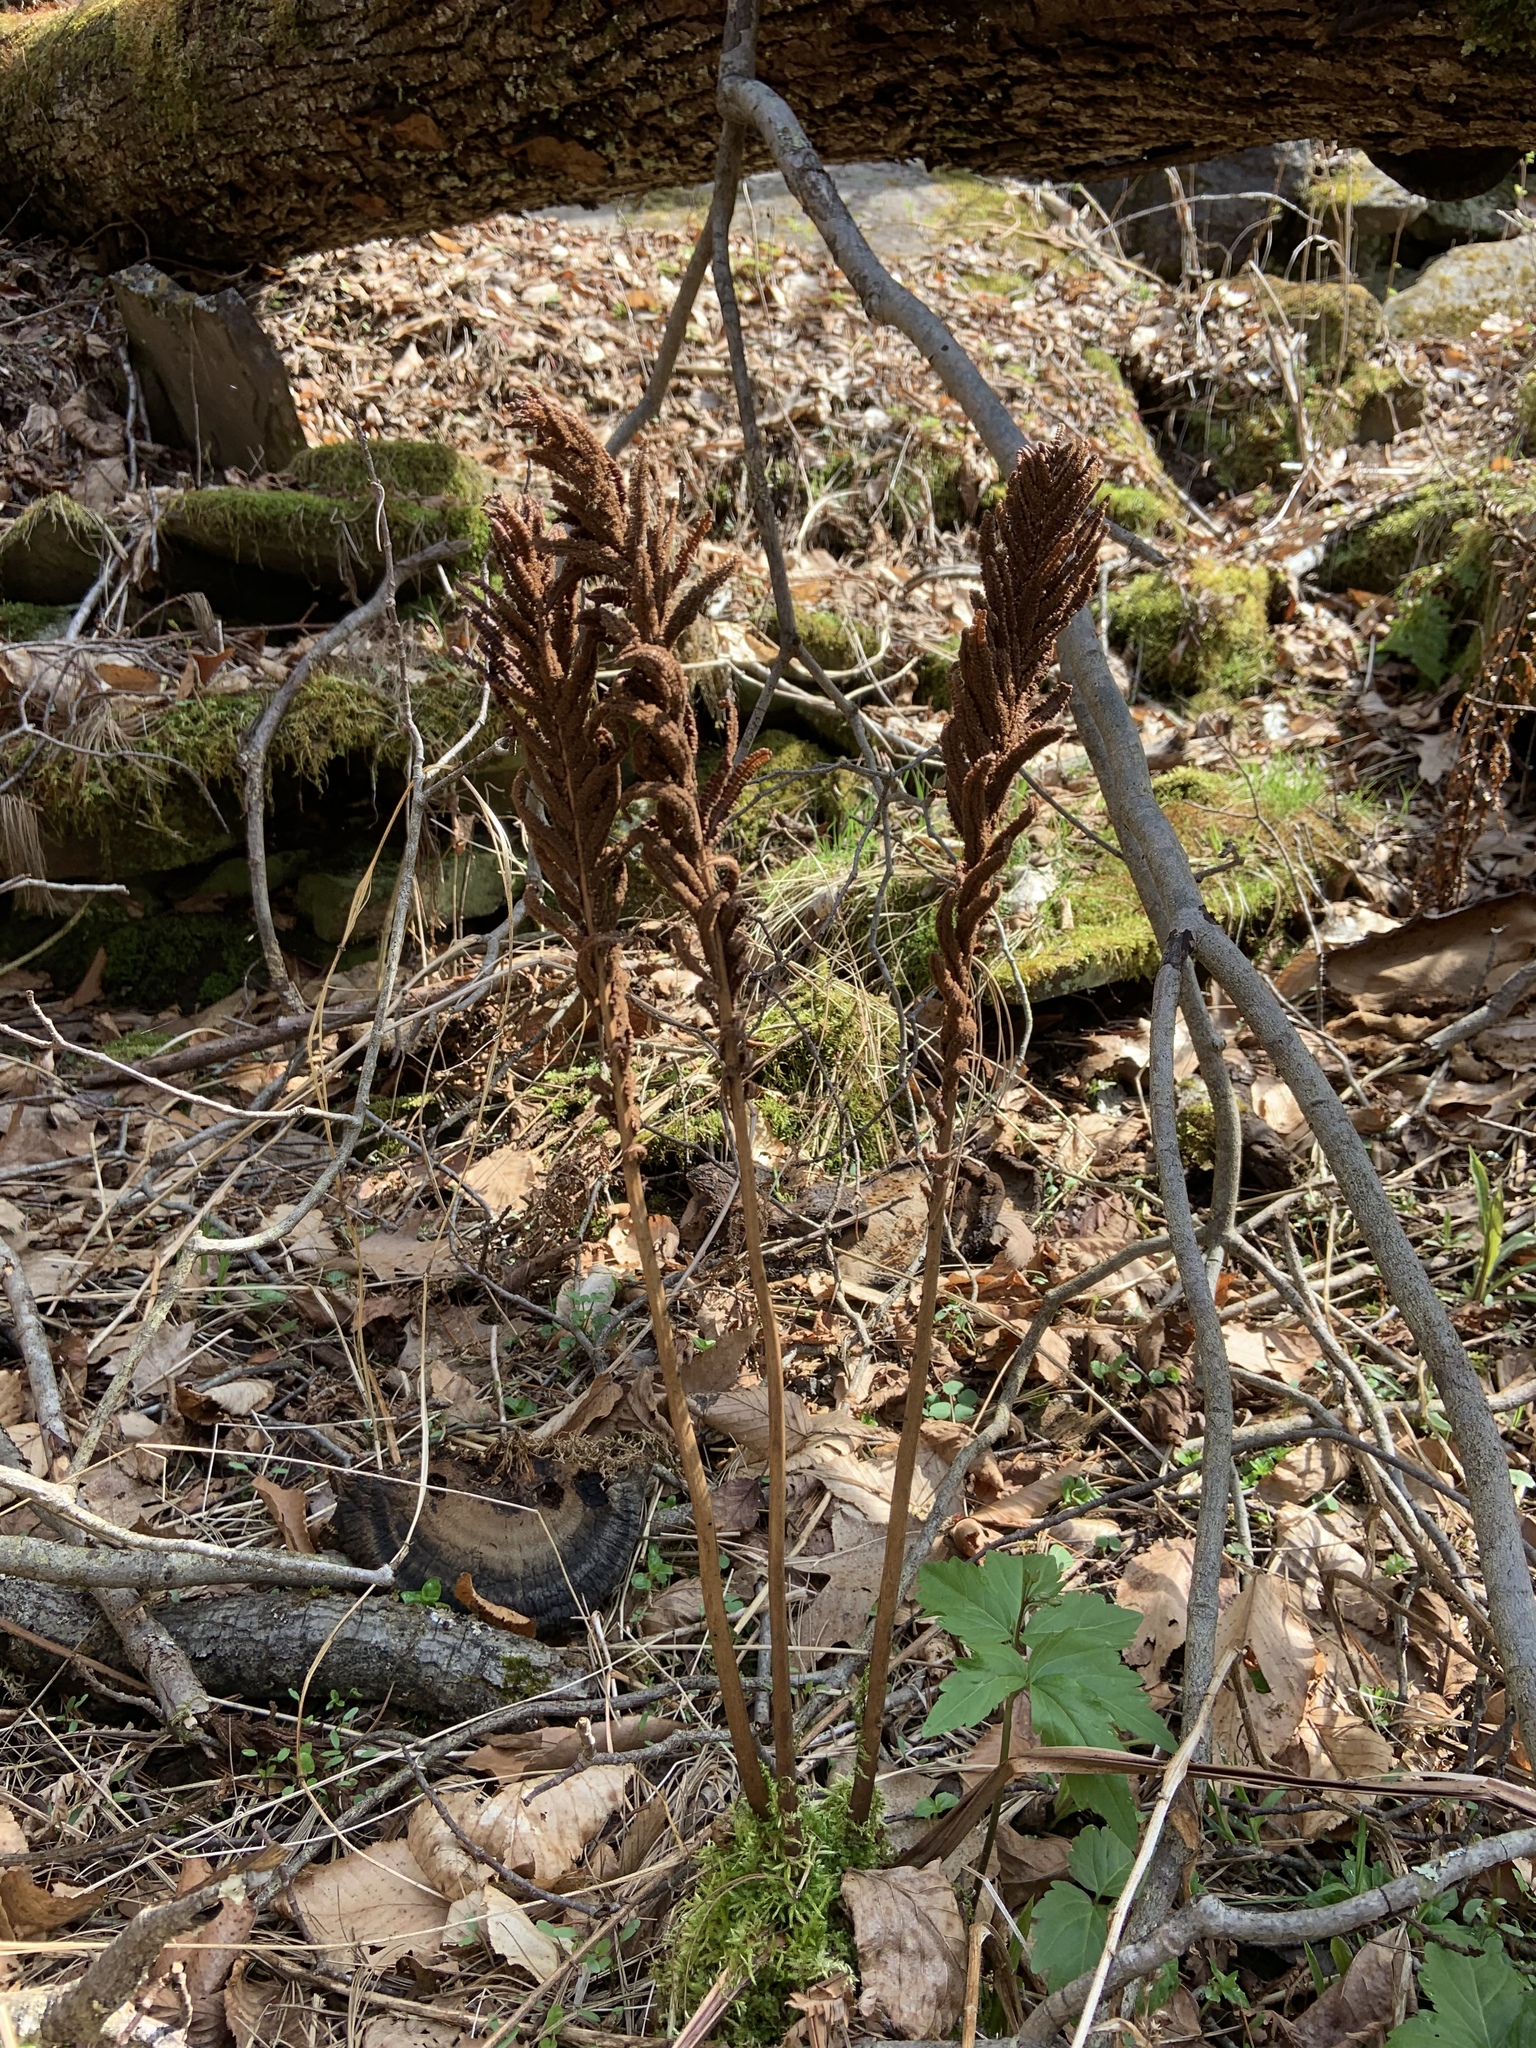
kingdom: Plantae
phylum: Tracheophyta
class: Polypodiopsida
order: Polypodiales
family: Onocleaceae
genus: Matteuccia
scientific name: Matteuccia struthiopteris
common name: Ostrich fern
